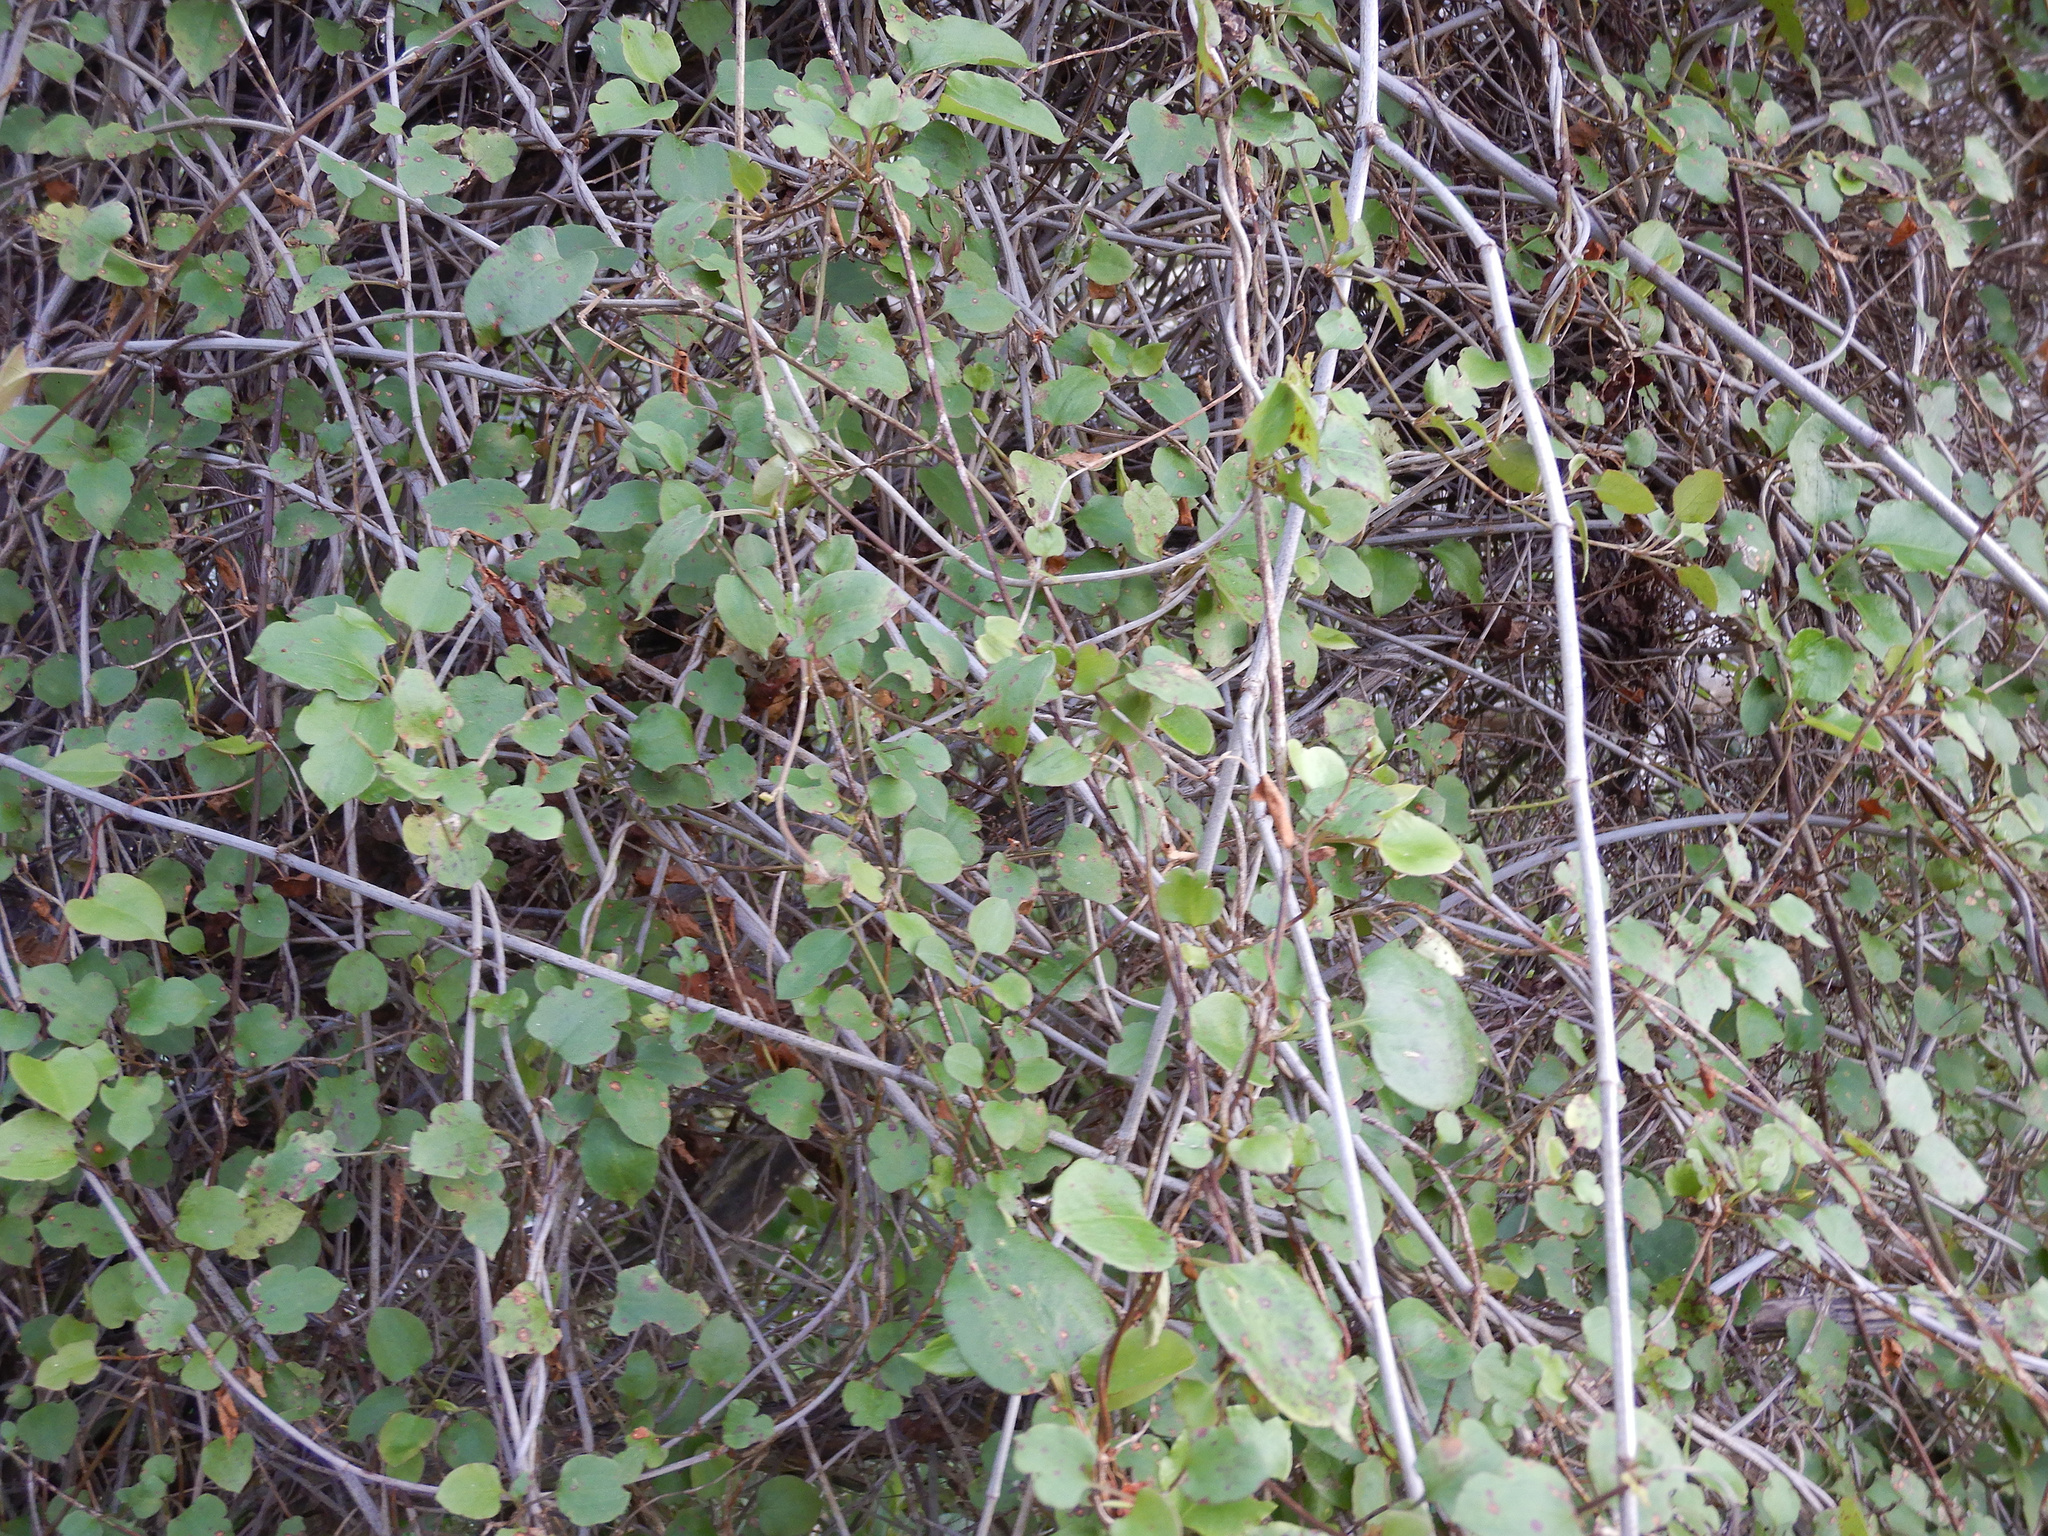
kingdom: Plantae
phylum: Tracheophyta
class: Magnoliopsida
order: Caryophyllales
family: Polygonaceae
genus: Muehlenbeckia
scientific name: Muehlenbeckia australis
